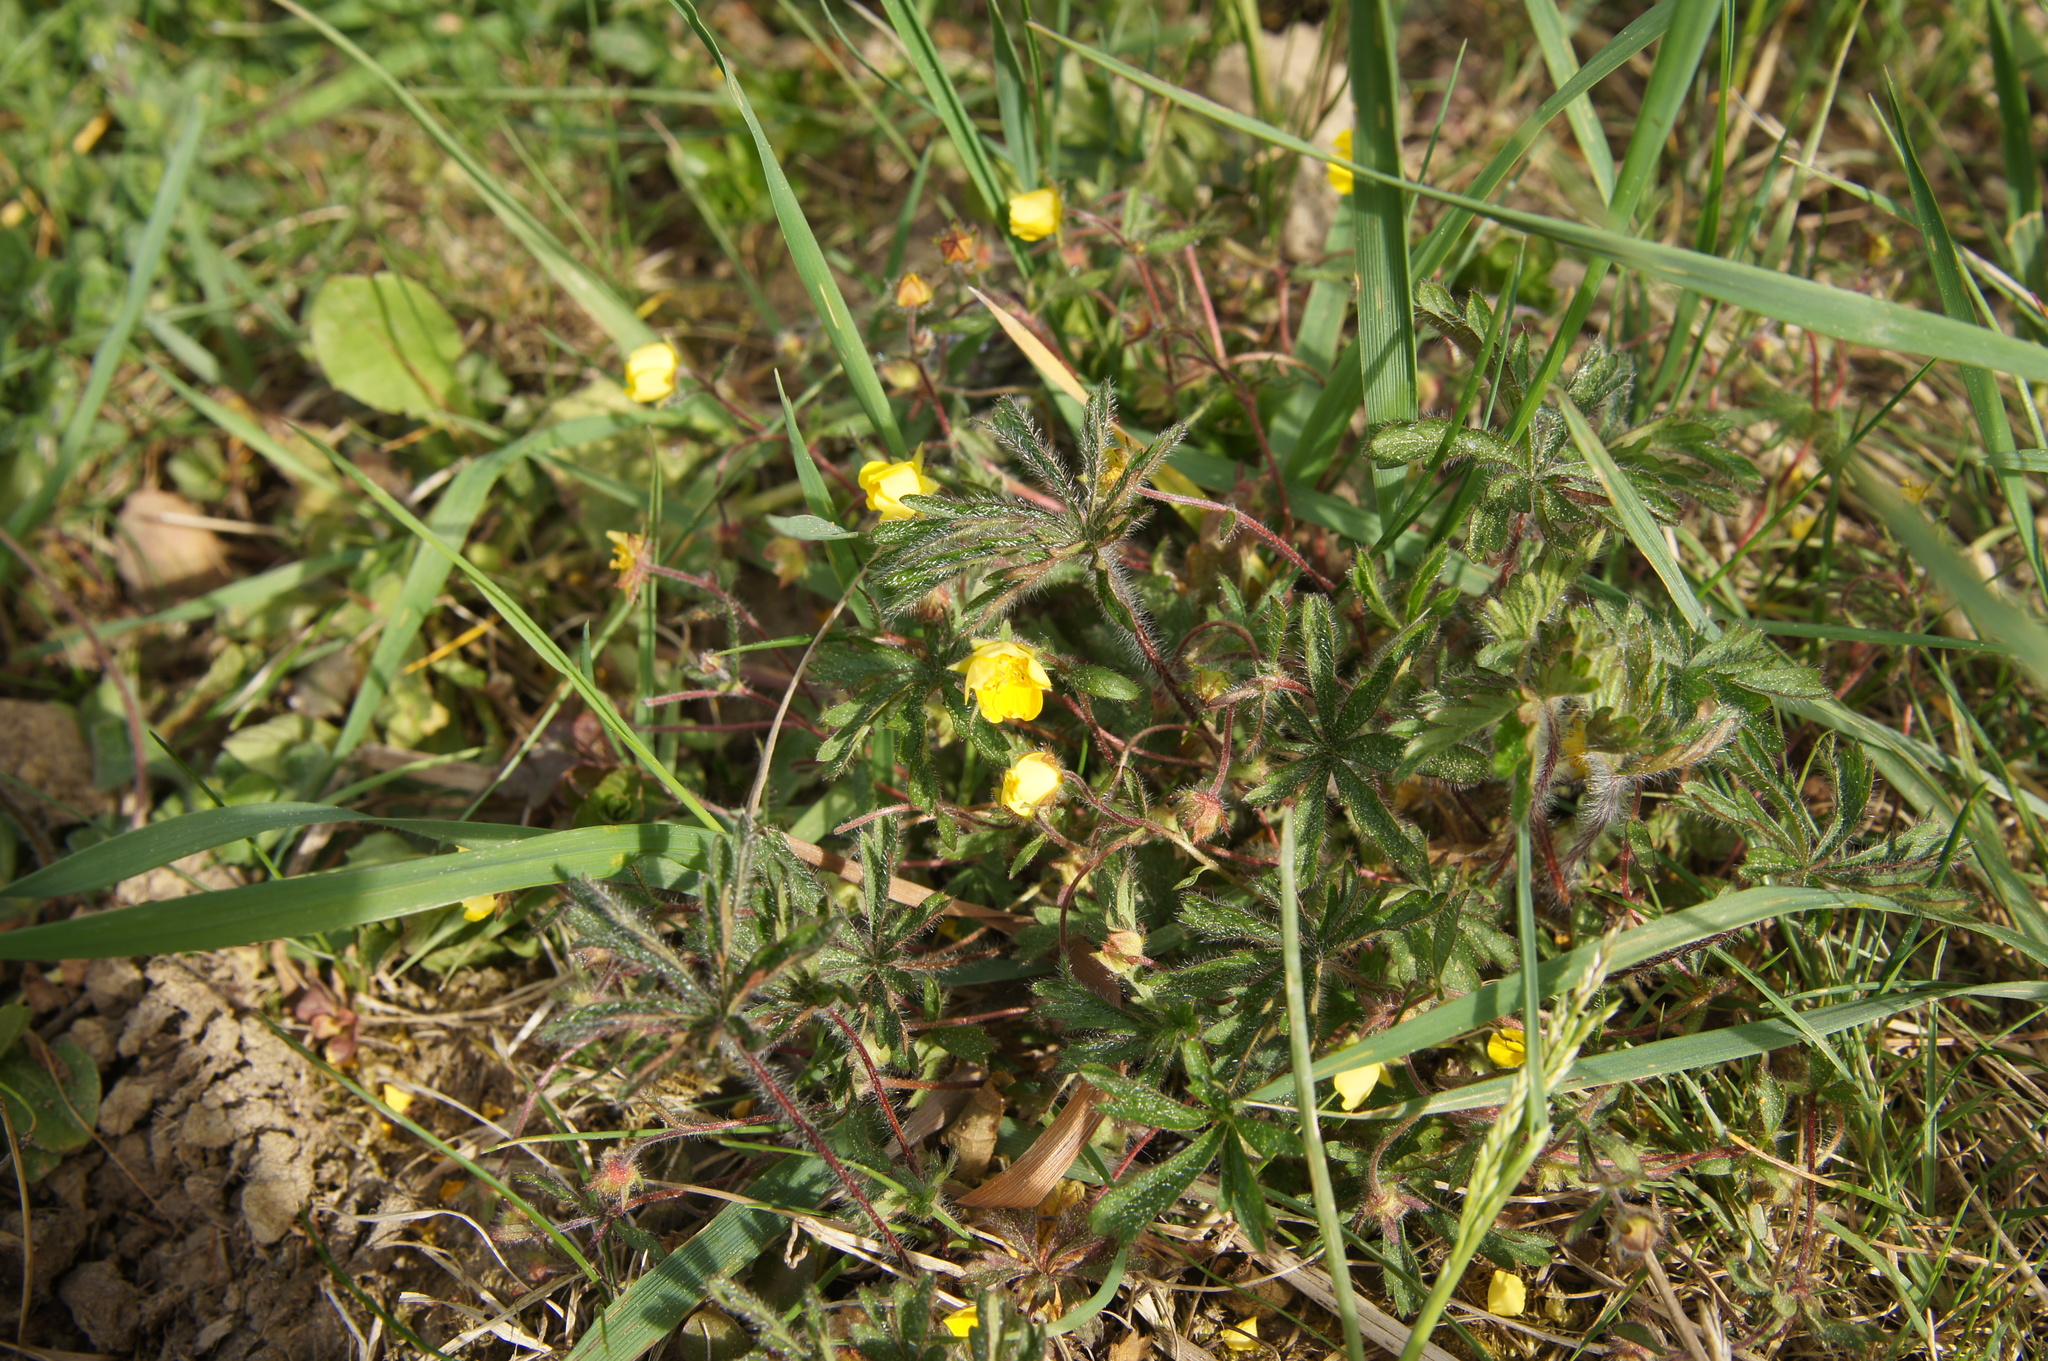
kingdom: Plantae
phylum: Tracheophyta
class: Magnoliopsida
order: Rosales
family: Rosaceae
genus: Potentilla
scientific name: Potentilla heptaphylla
